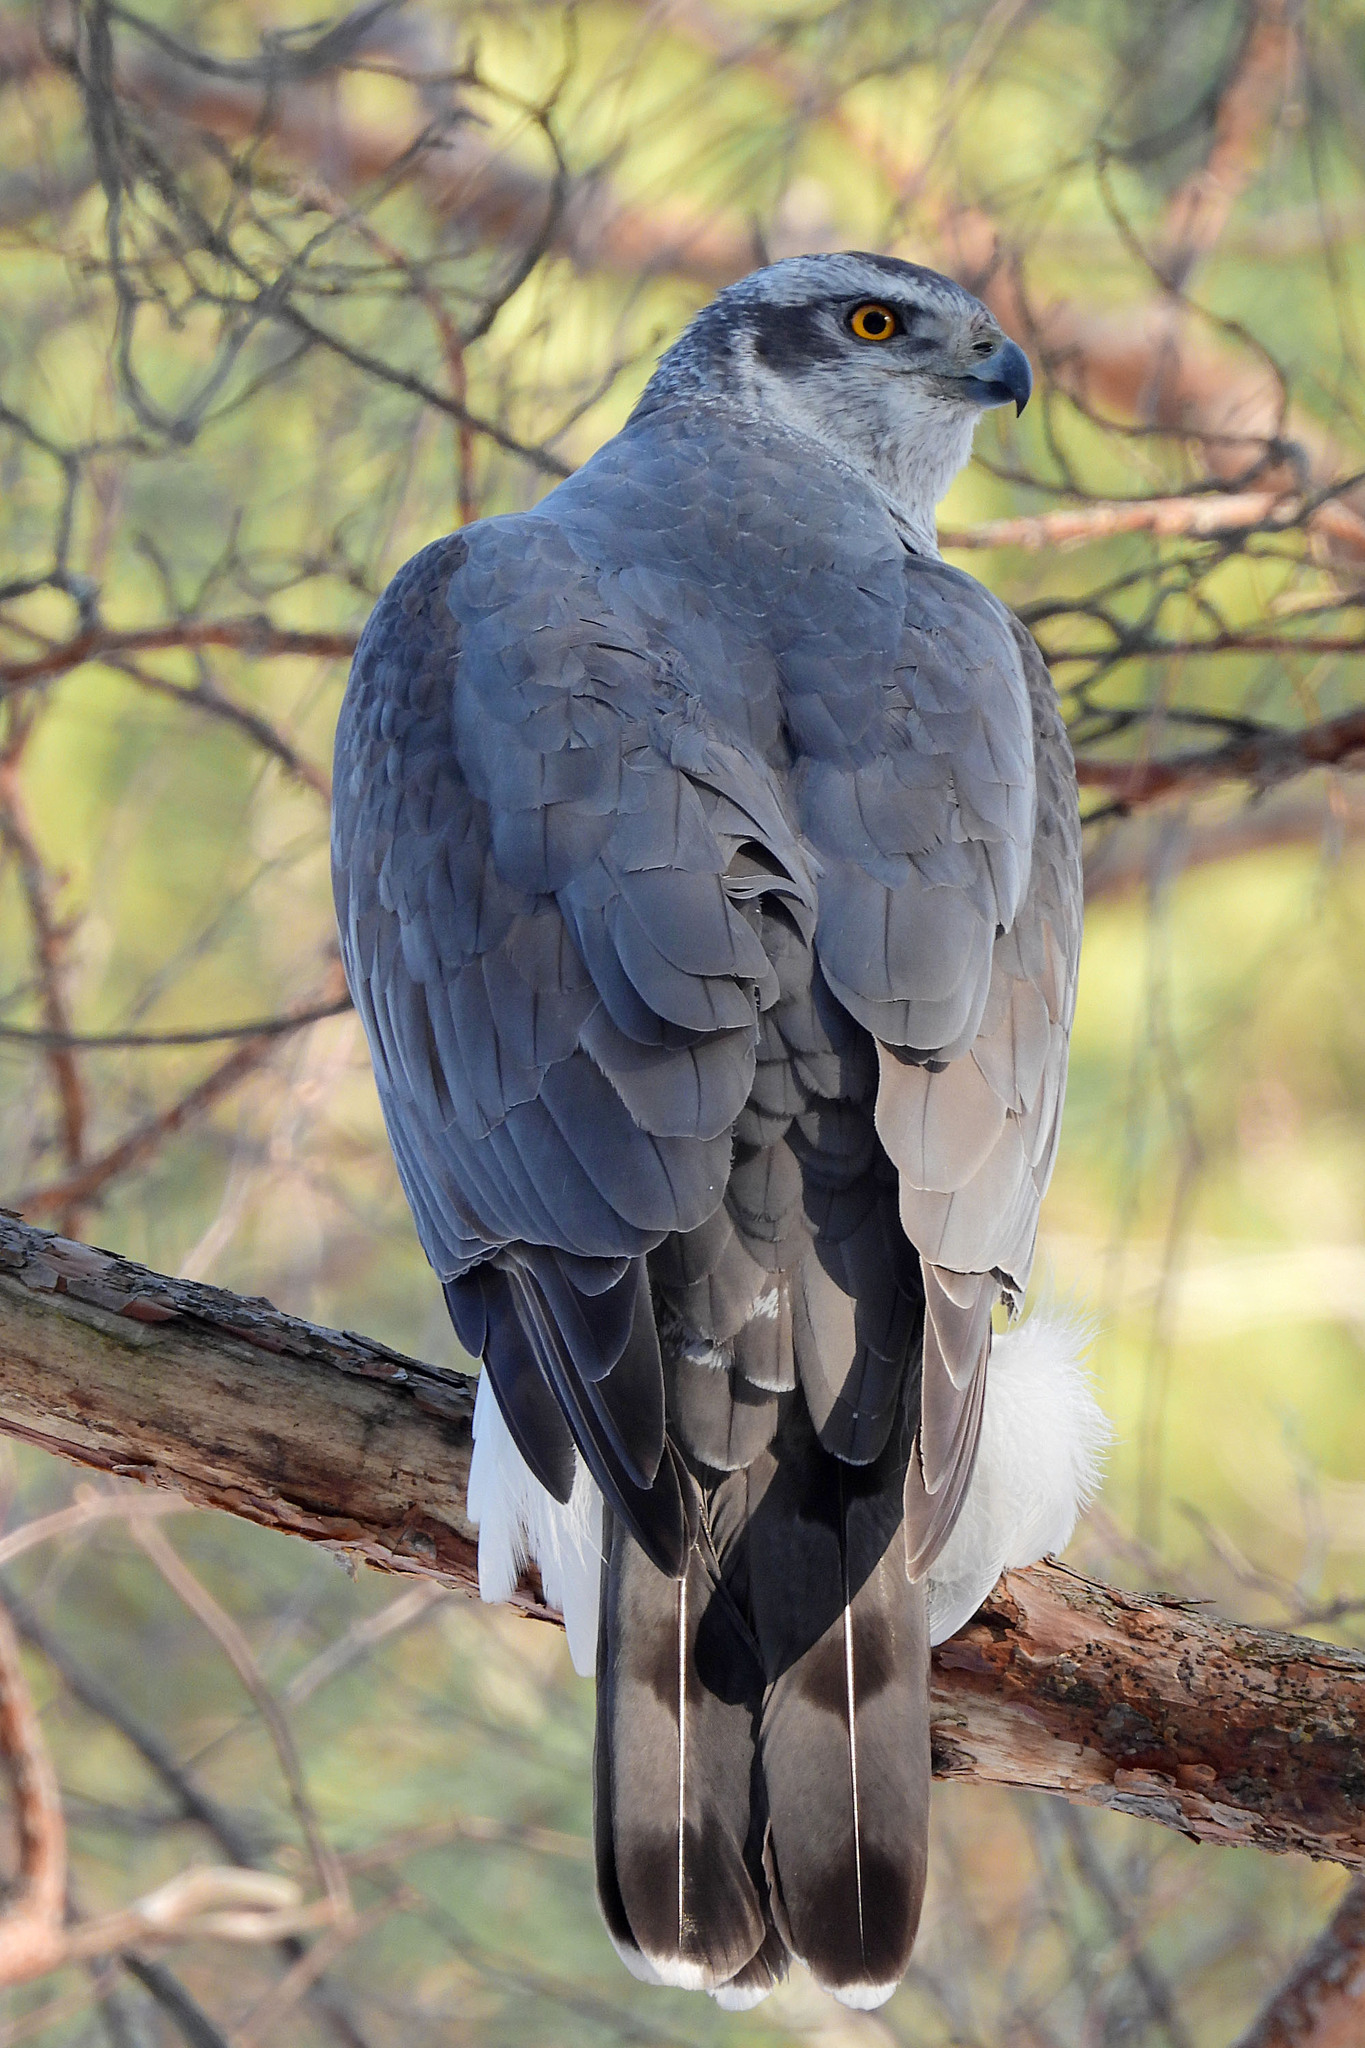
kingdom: Animalia
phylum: Chordata
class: Aves
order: Accipitriformes
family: Accipitridae
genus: Accipiter
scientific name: Accipiter gentilis
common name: Northern goshawk
